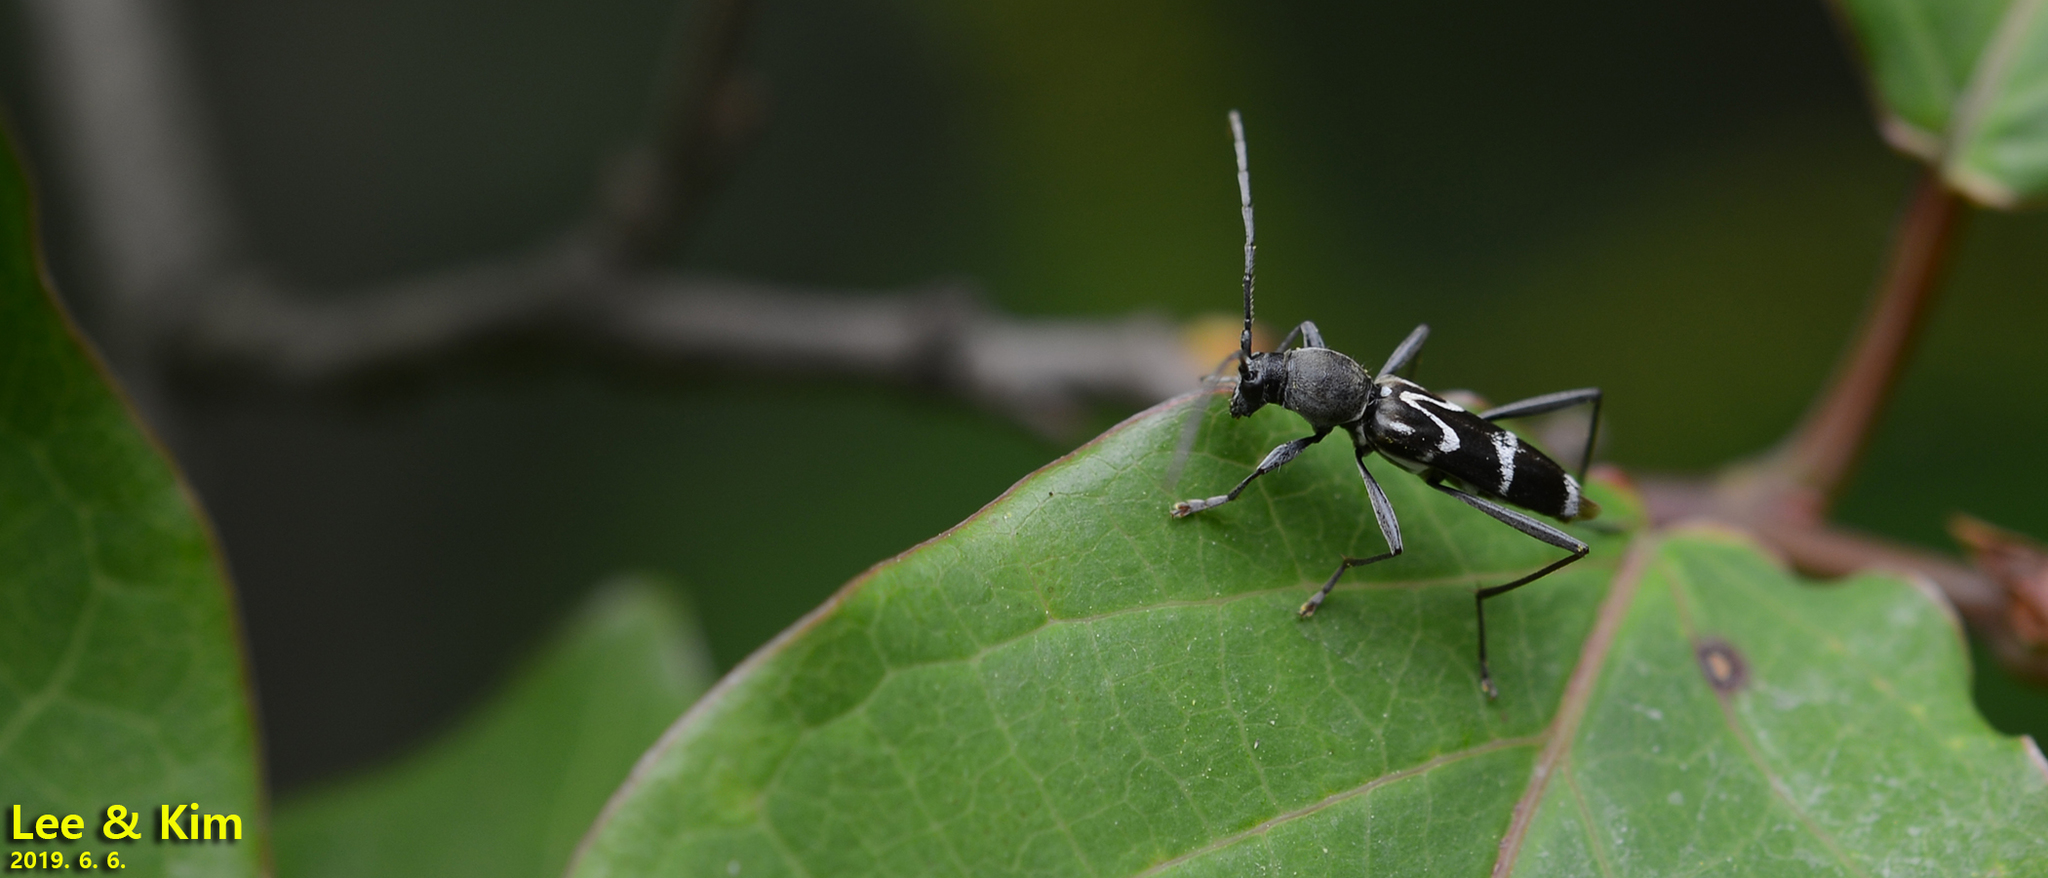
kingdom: Animalia
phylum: Arthropoda
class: Insecta
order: Coleoptera
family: Cerambycidae
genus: Rhaphuma
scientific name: Rhaphuma gracilipes
